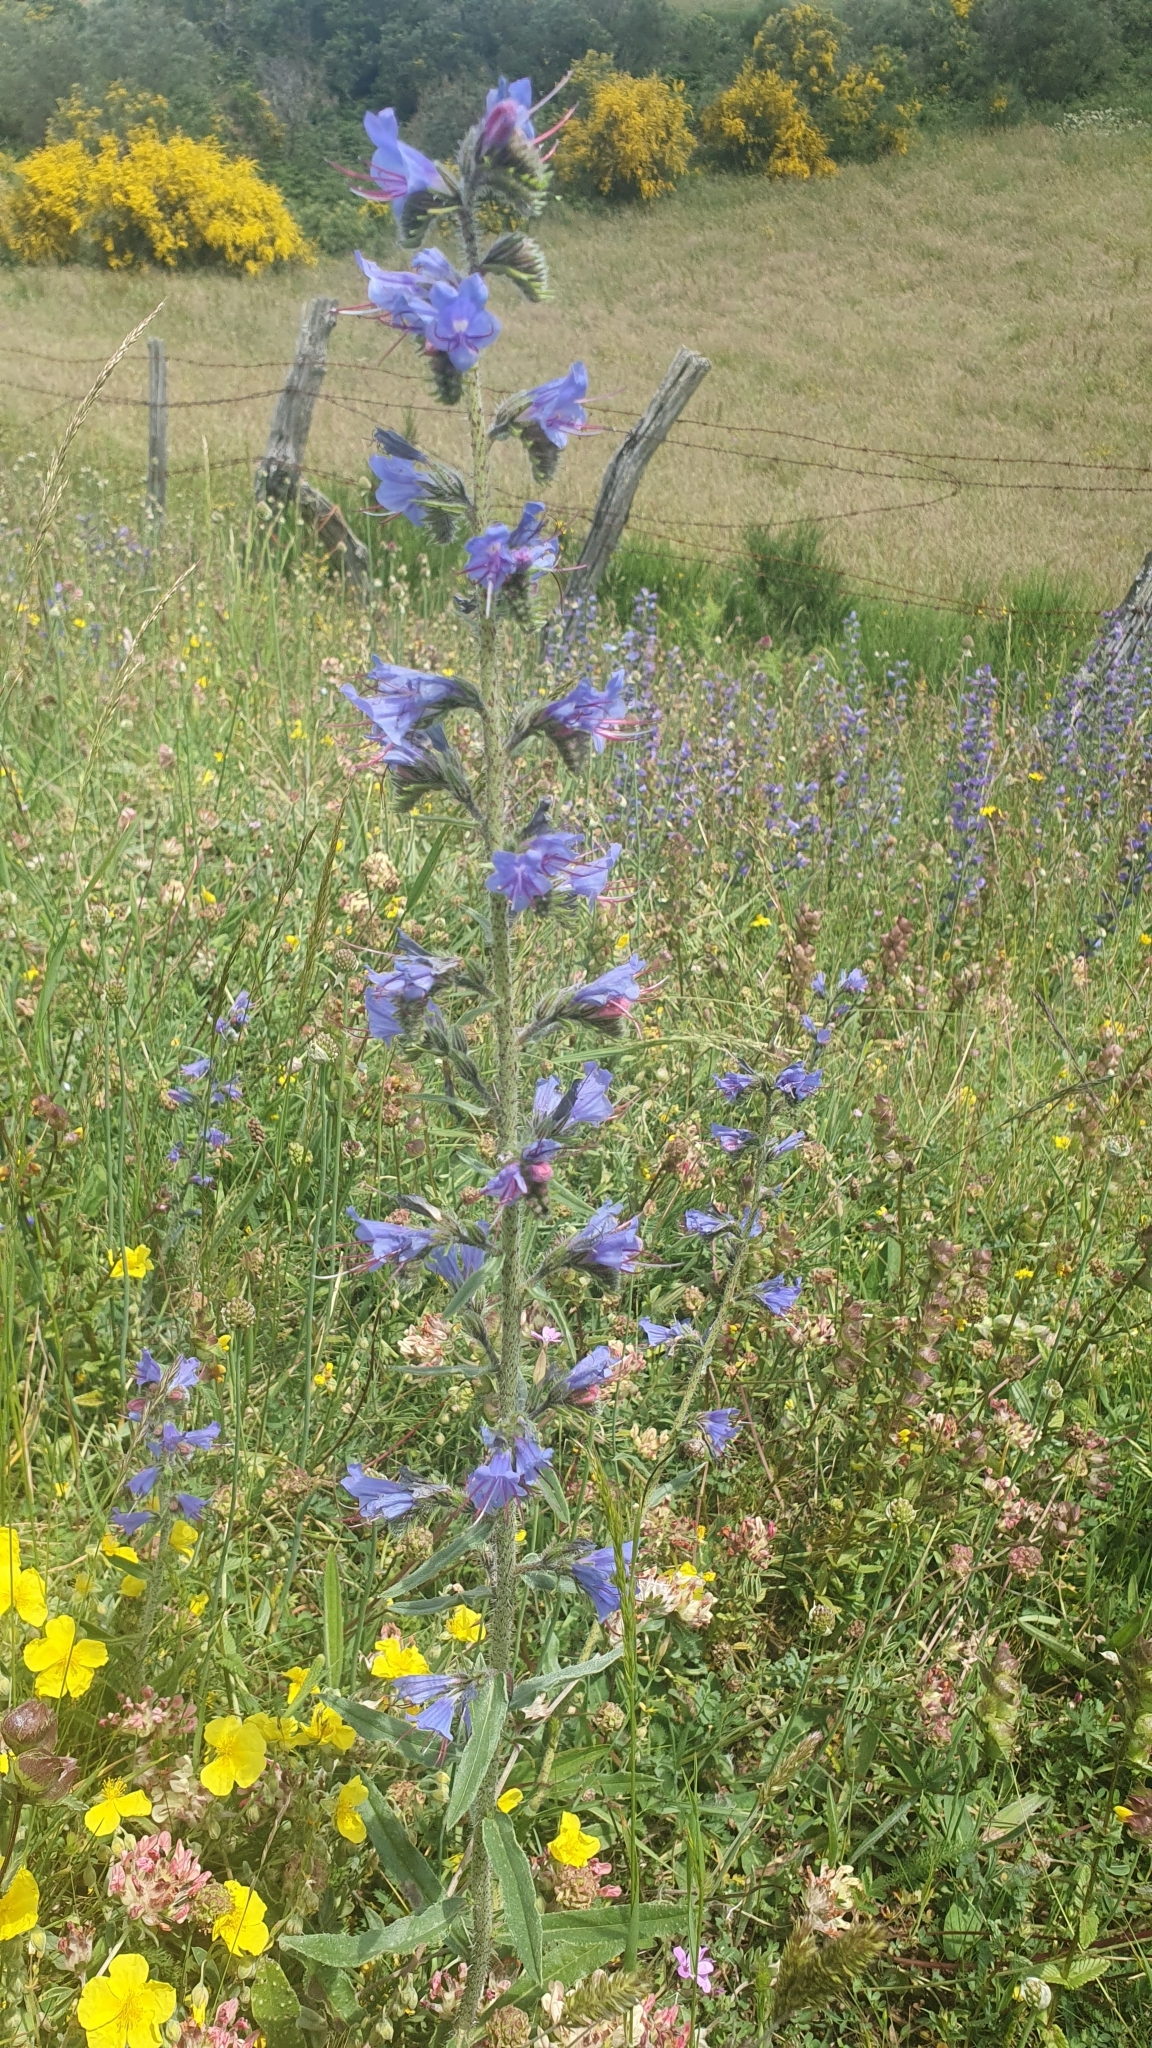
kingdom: Plantae
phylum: Tracheophyta
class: Magnoliopsida
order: Boraginales
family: Boraginaceae
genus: Echium
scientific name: Echium vulgare
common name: Common viper's bugloss
